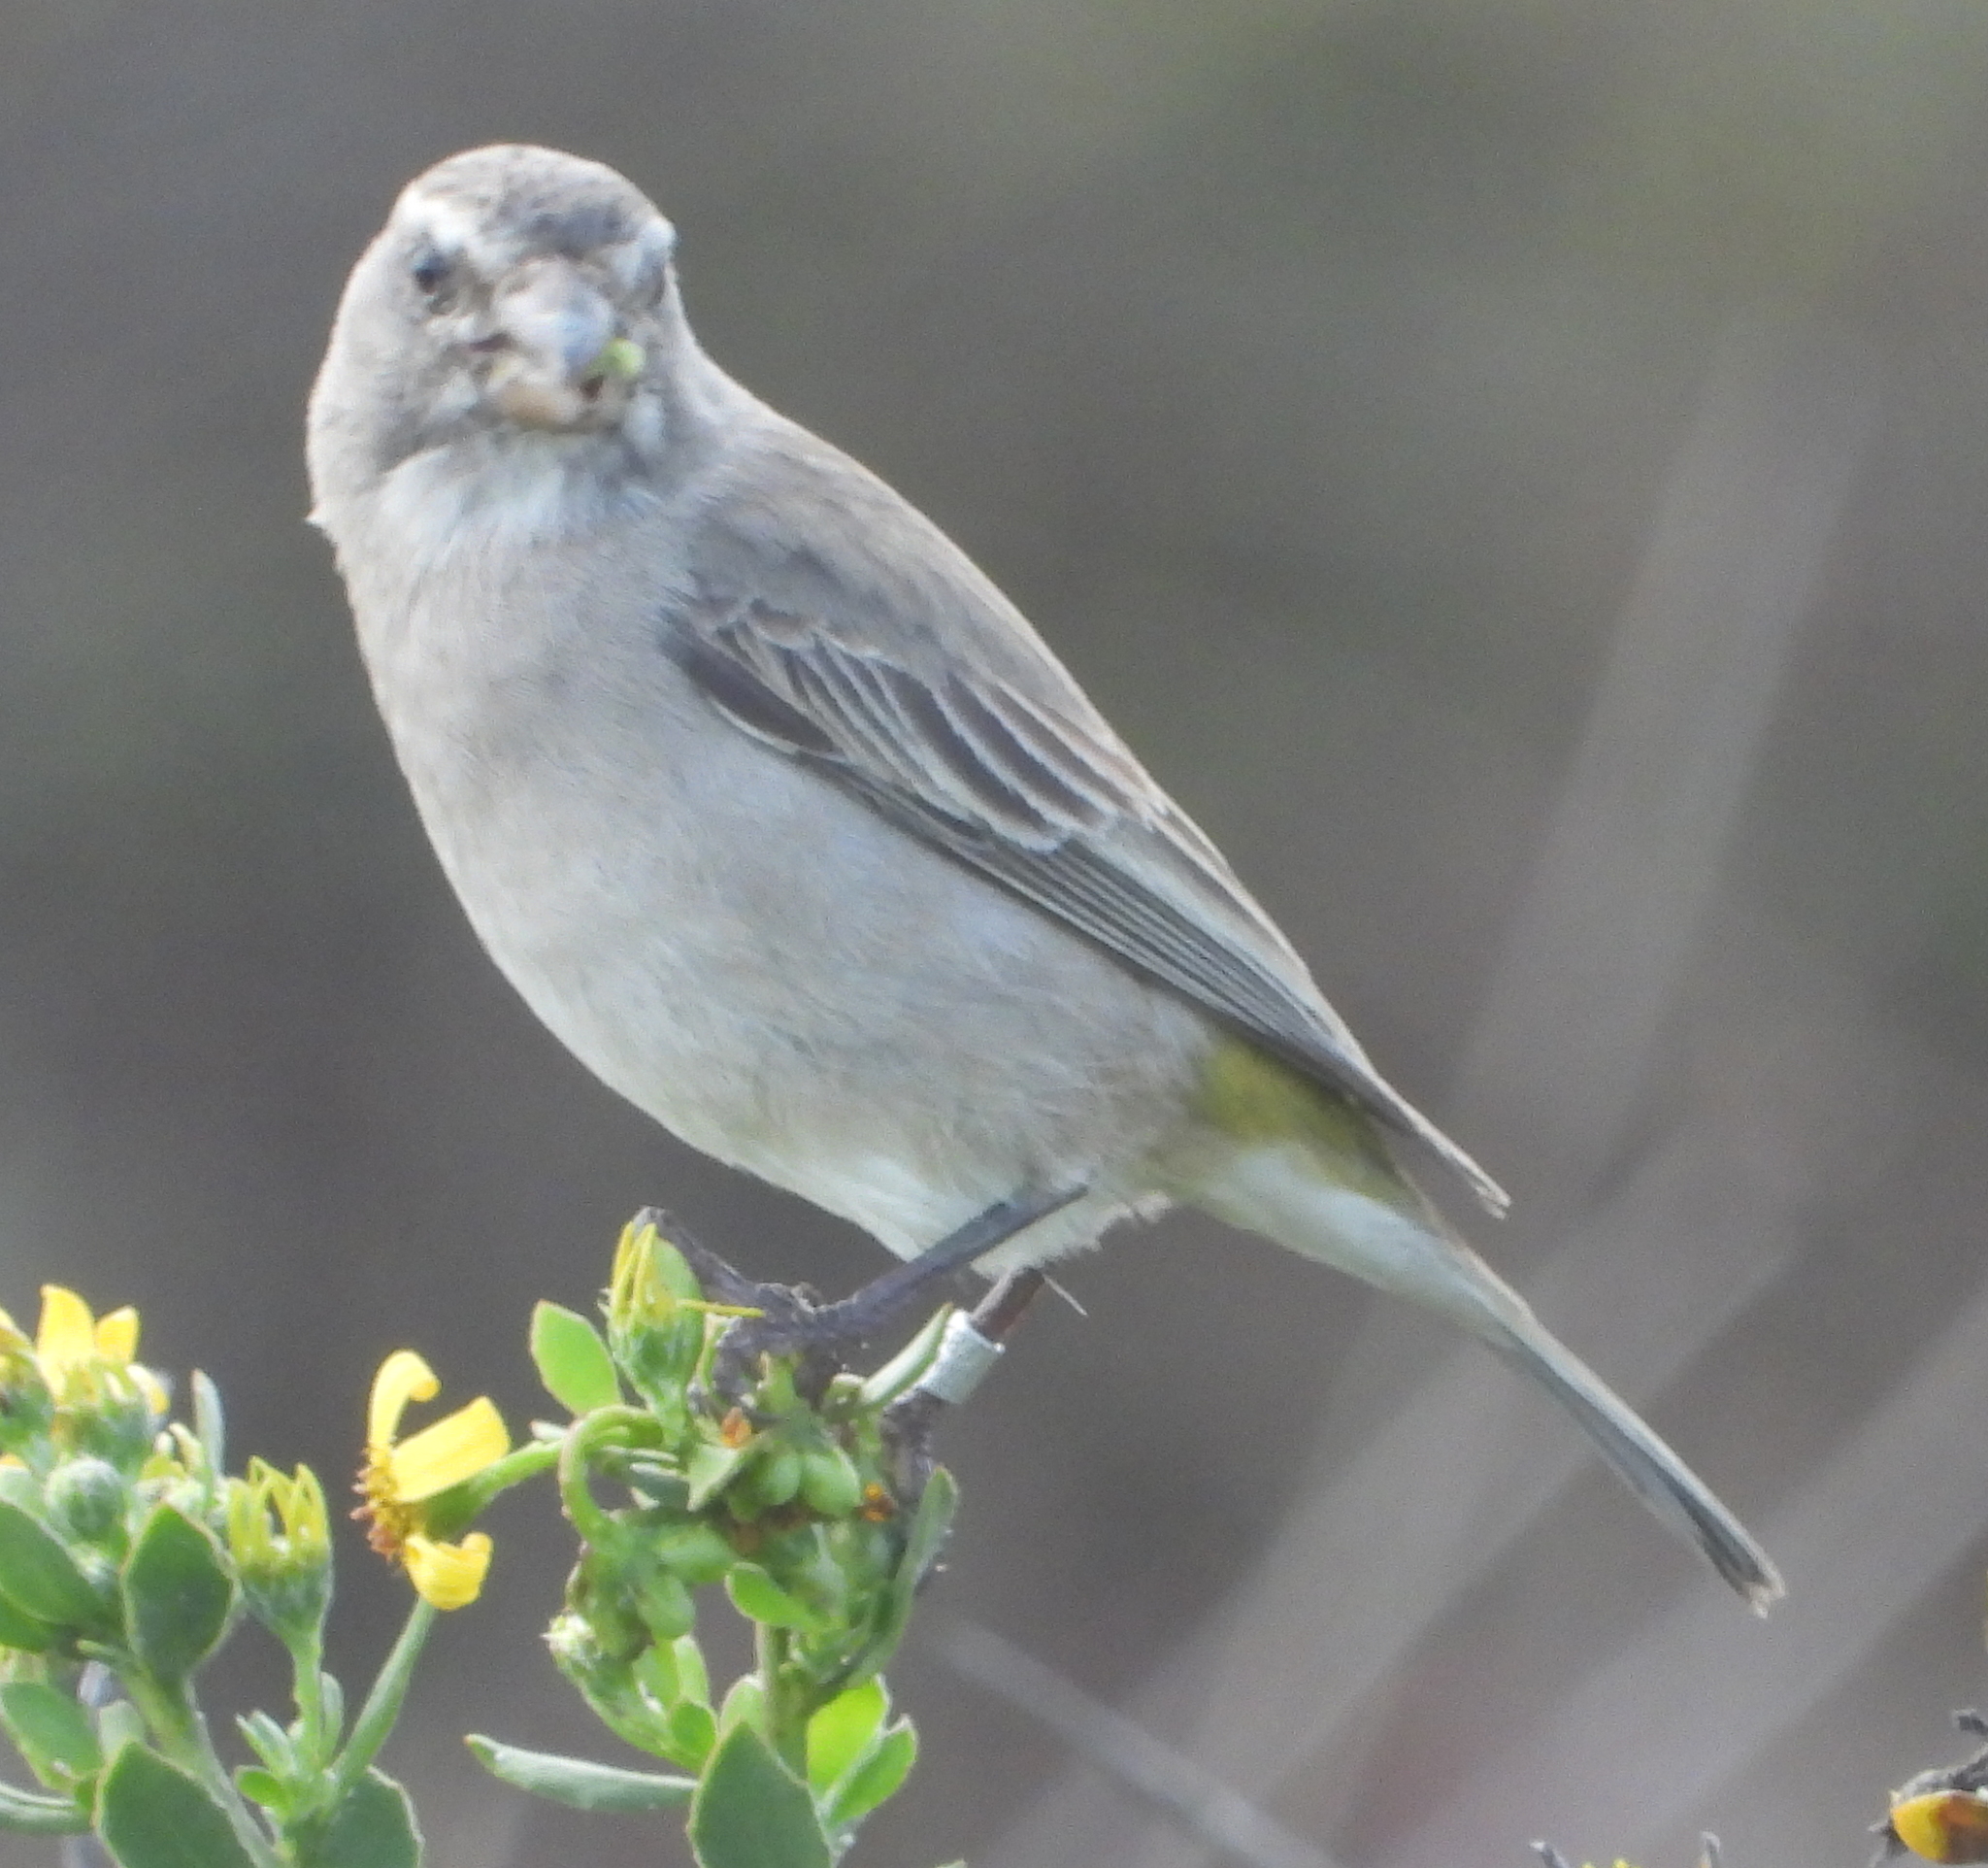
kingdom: Animalia
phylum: Chordata
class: Aves
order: Passeriformes
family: Fringillidae
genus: Crithagra
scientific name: Crithagra albogularis
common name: White-throated canary
